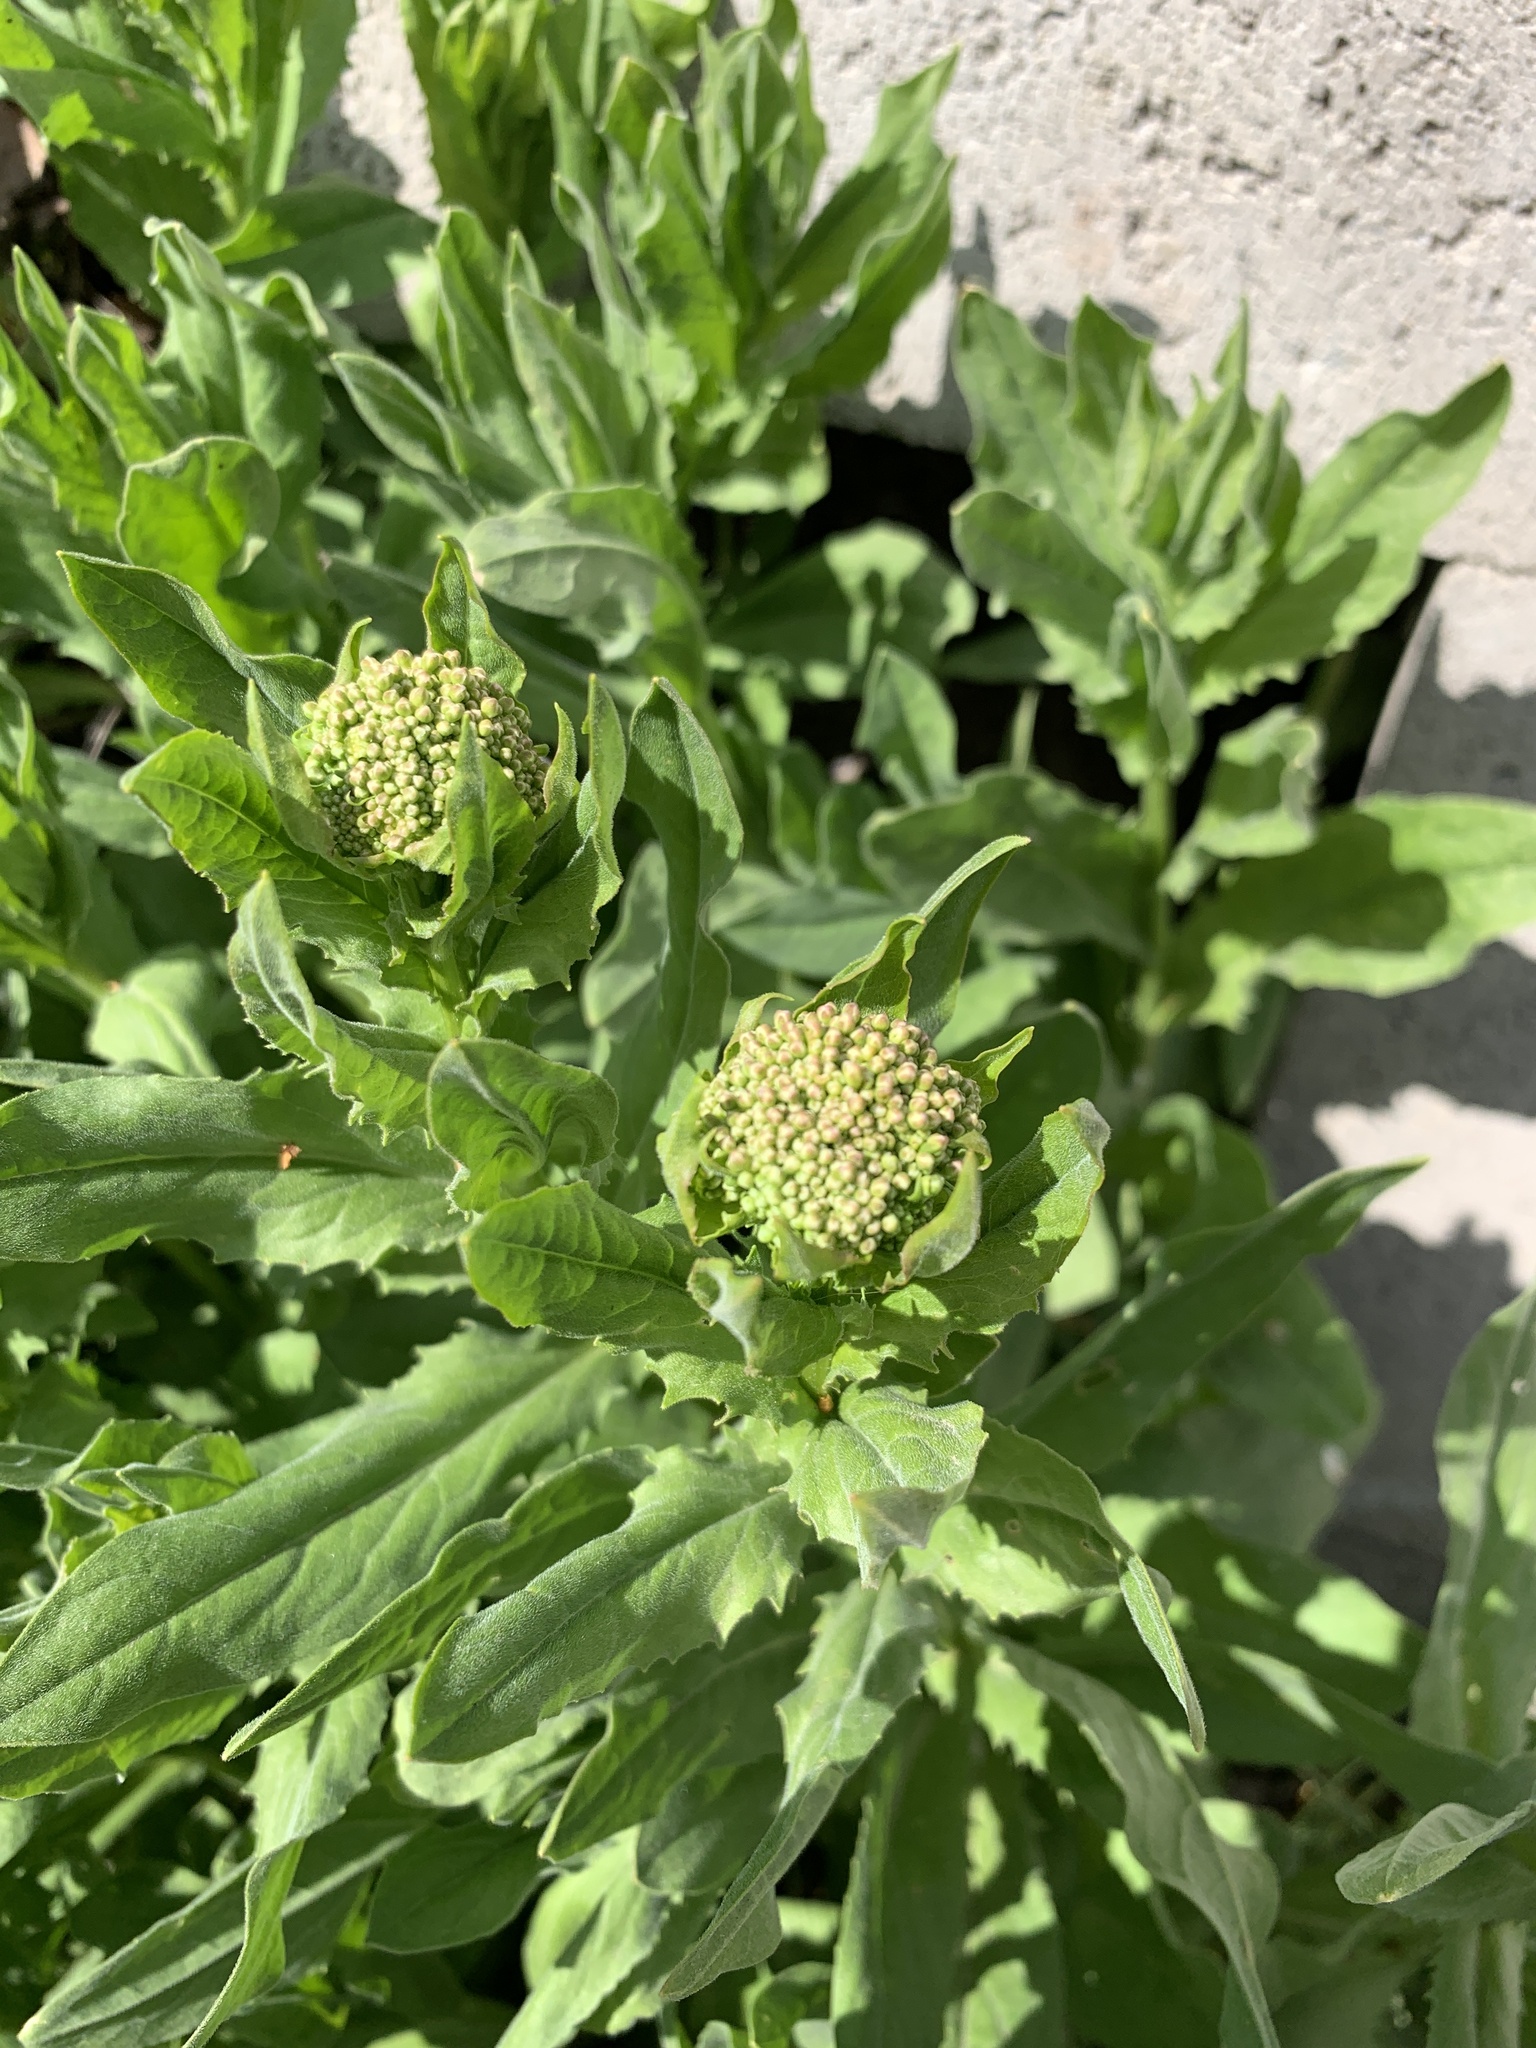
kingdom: Plantae
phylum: Tracheophyta
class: Magnoliopsida
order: Brassicales
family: Brassicaceae
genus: Lepidium
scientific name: Lepidium draba
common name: Hoary cress
